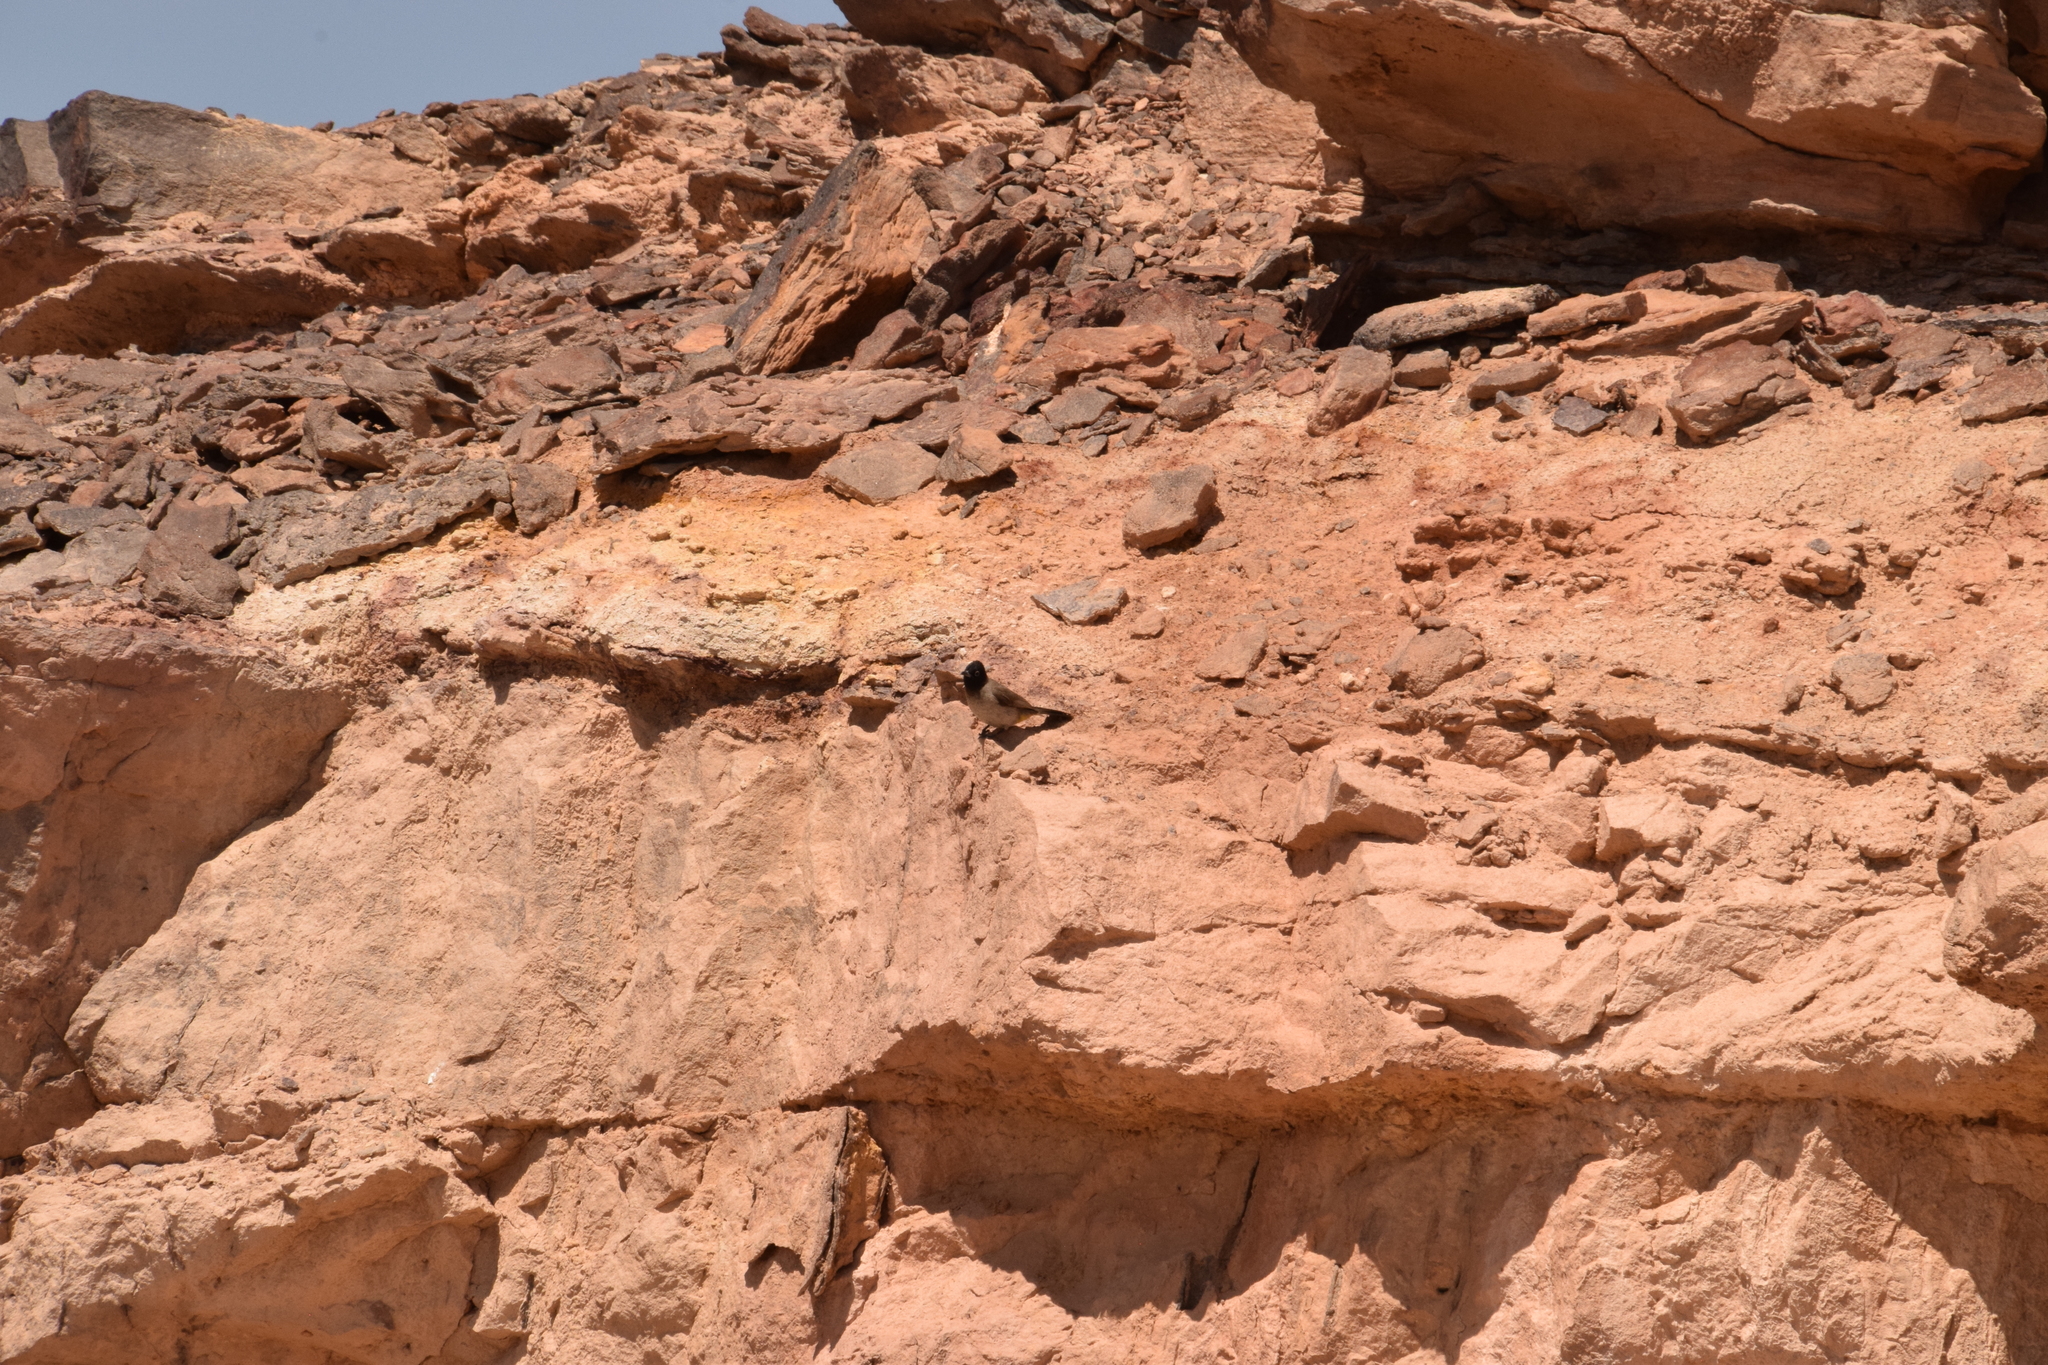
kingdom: Animalia
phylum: Chordata
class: Aves
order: Passeriformes
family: Pycnonotidae
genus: Pycnonotus
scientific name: Pycnonotus xanthopygos
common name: White-spectacled bulbul
